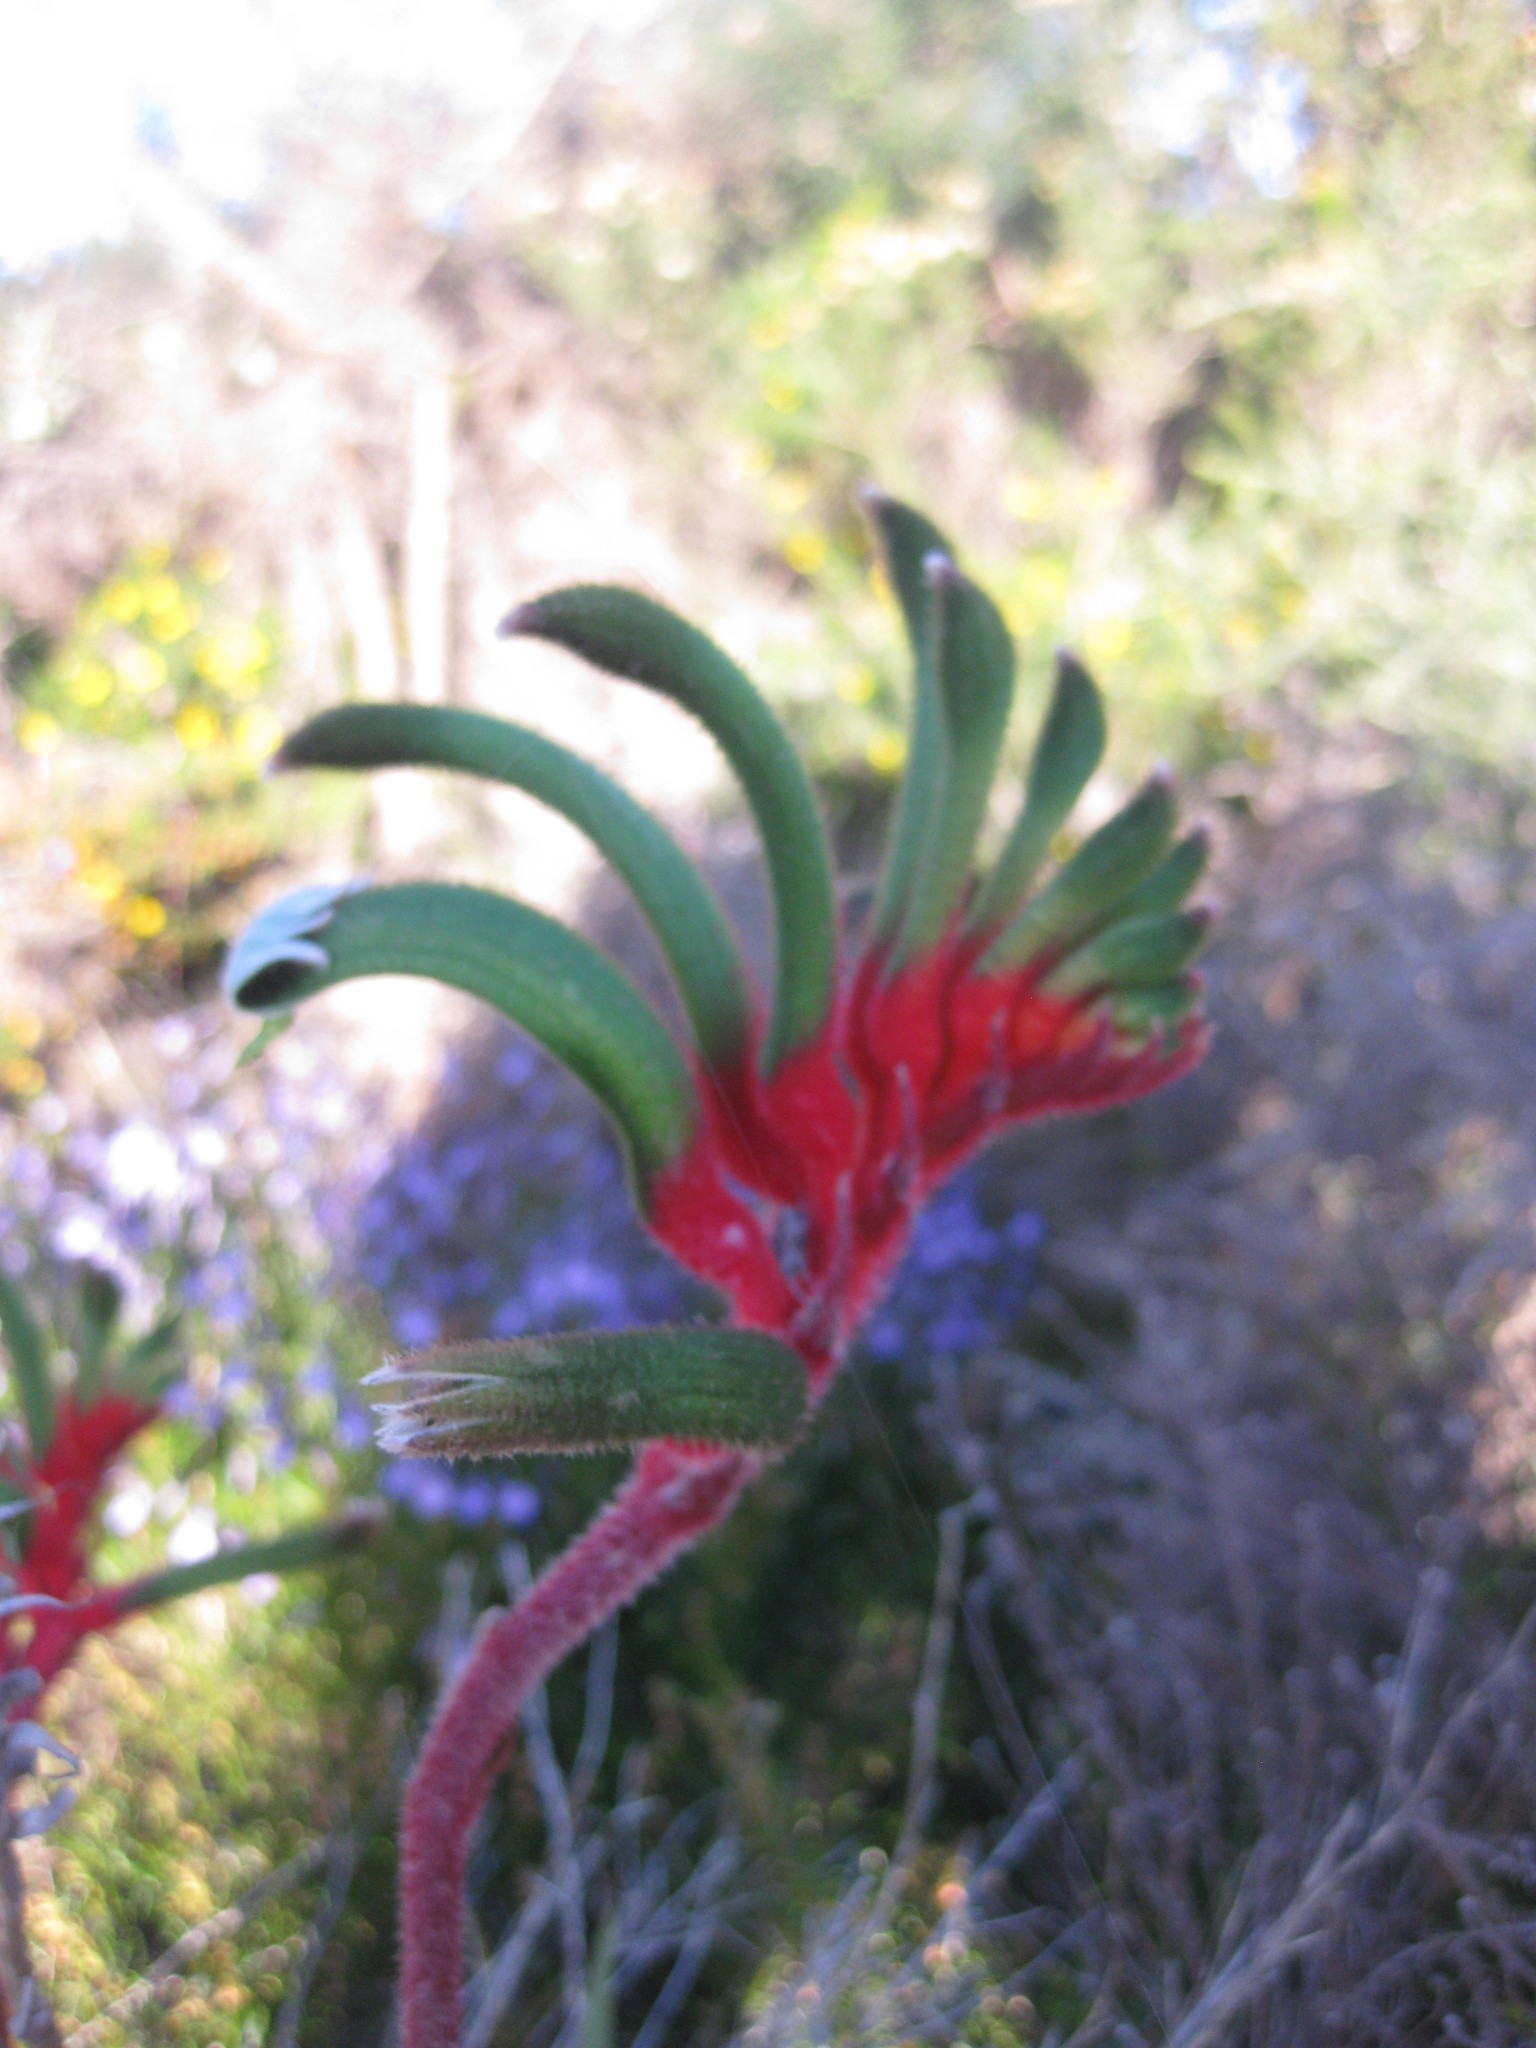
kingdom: Plantae
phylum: Tracheophyta
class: Liliopsida
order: Commelinales
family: Haemodoraceae
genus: Anigozanthos
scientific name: Anigozanthos manglesii
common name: Mangles's kangaroo-paw
